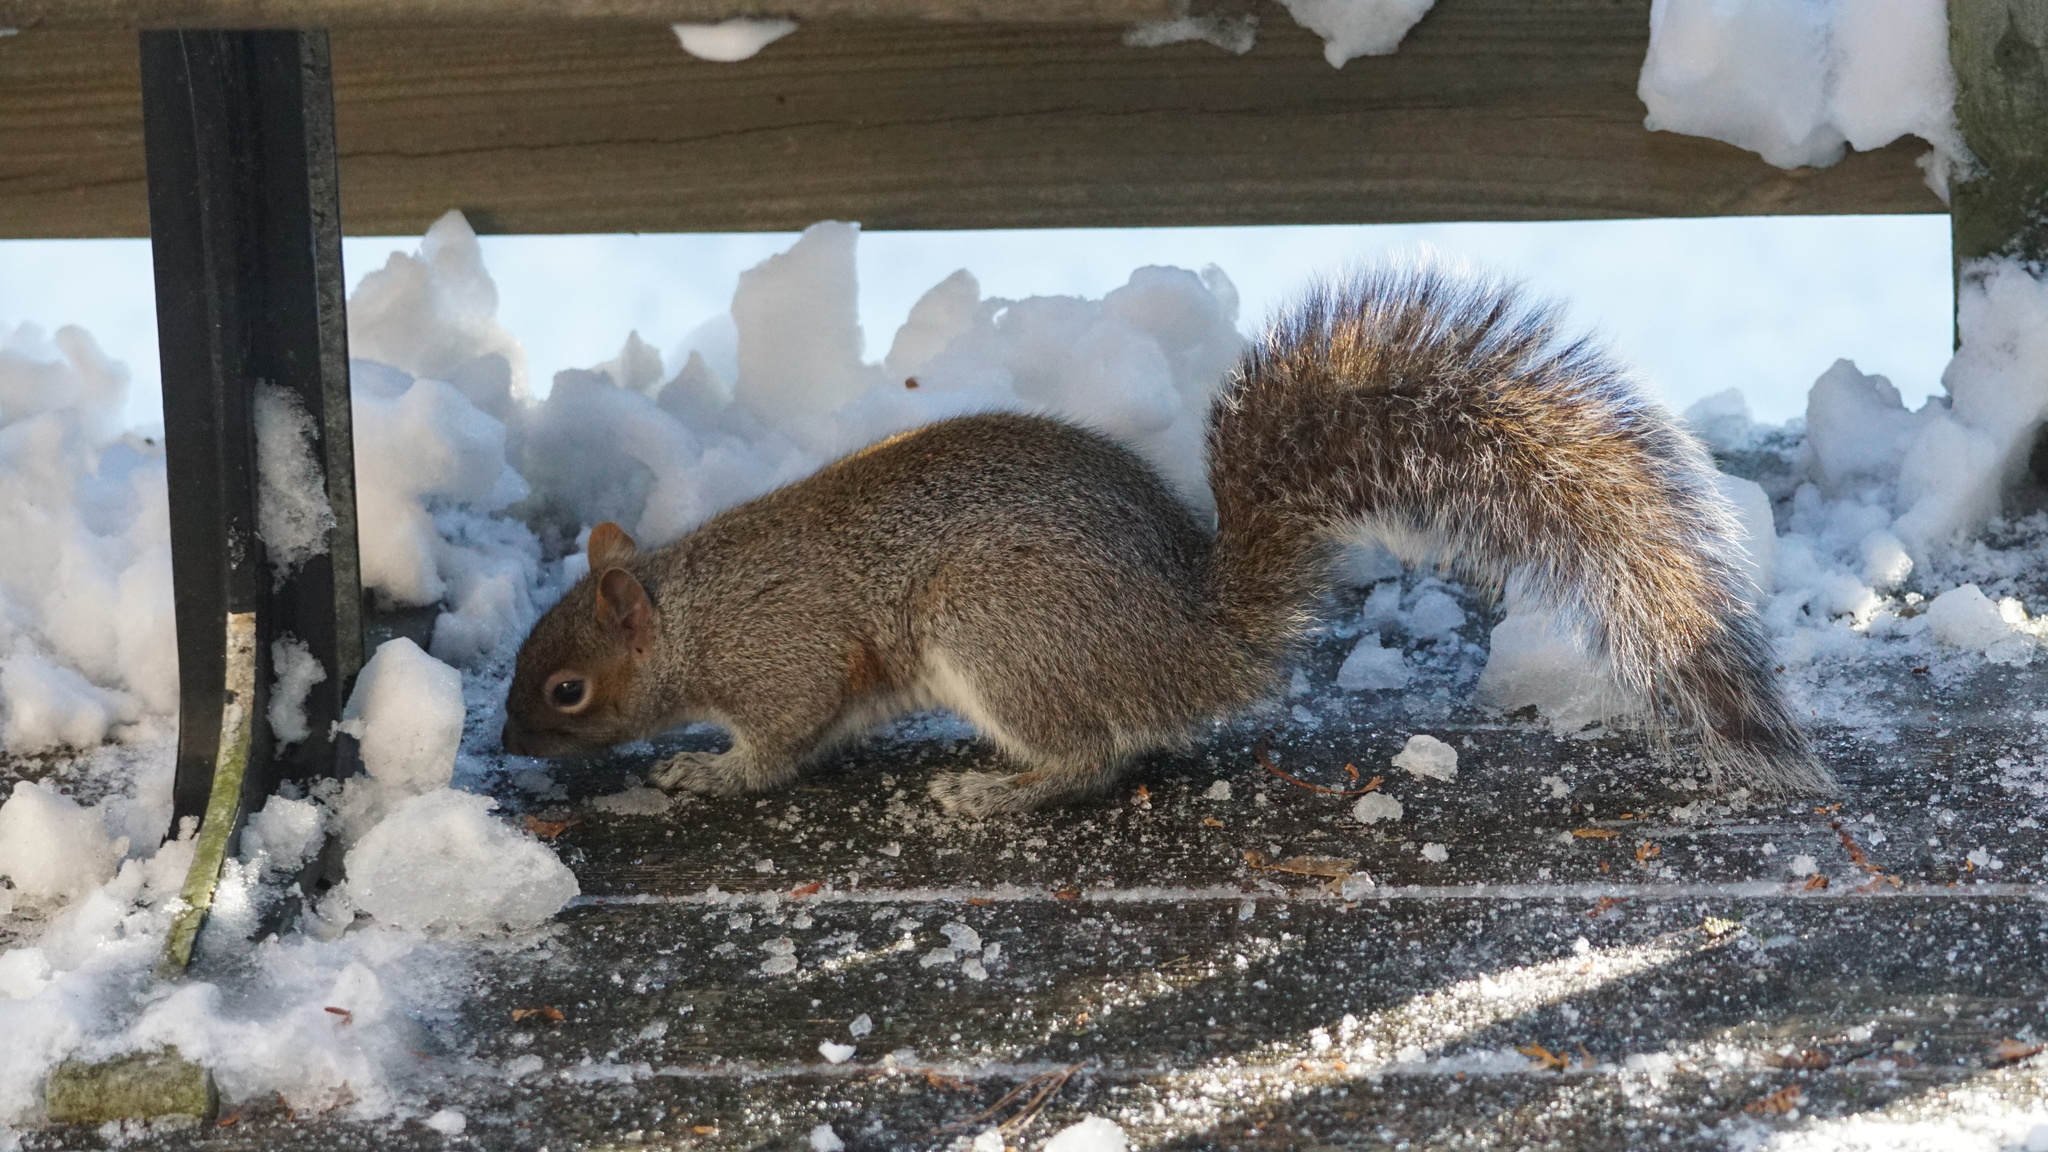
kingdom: Animalia
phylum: Chordata
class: Mammalia
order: Rodentia
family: Sciuridae
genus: Sciurus
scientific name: Sciurus carolinensis
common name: Eastern gray squirrel
